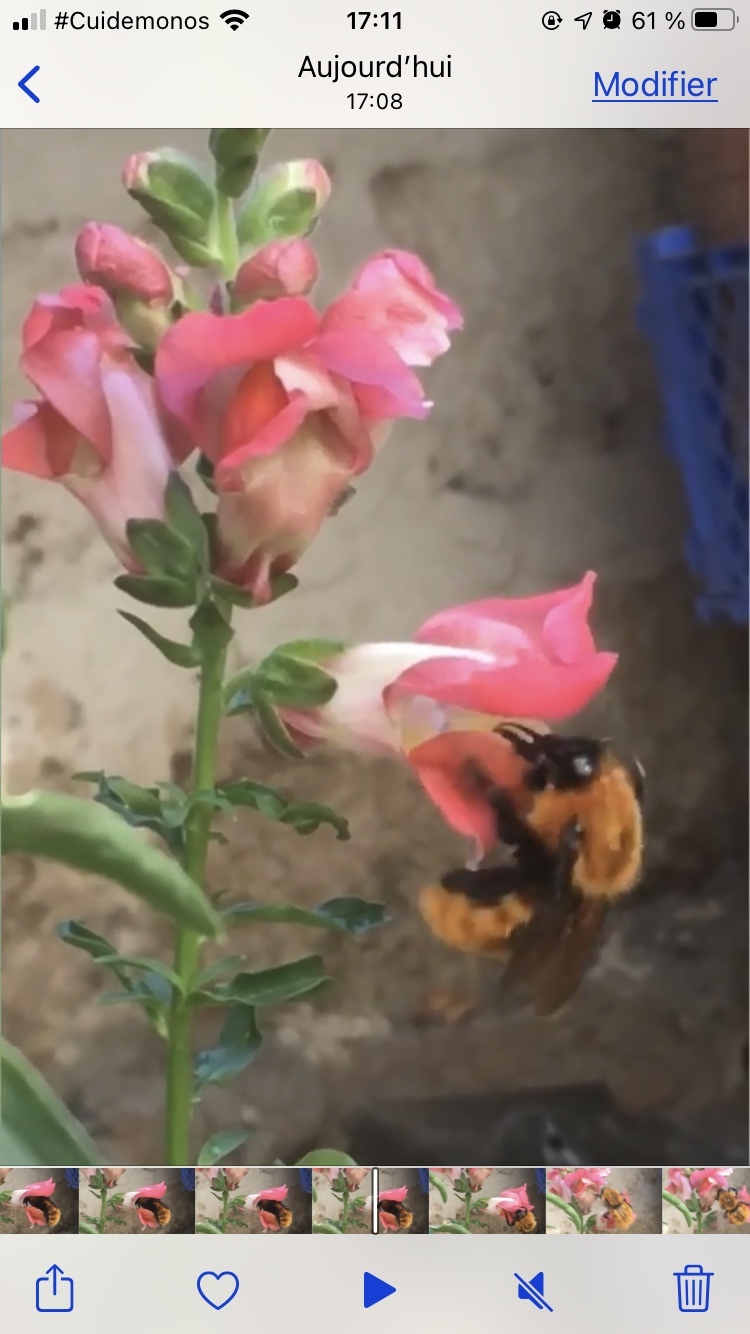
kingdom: Animalia
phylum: Arthropoda
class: Insecta
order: Hymenoptera
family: Apidae
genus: Bombus
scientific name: Bombus dahlbomii
